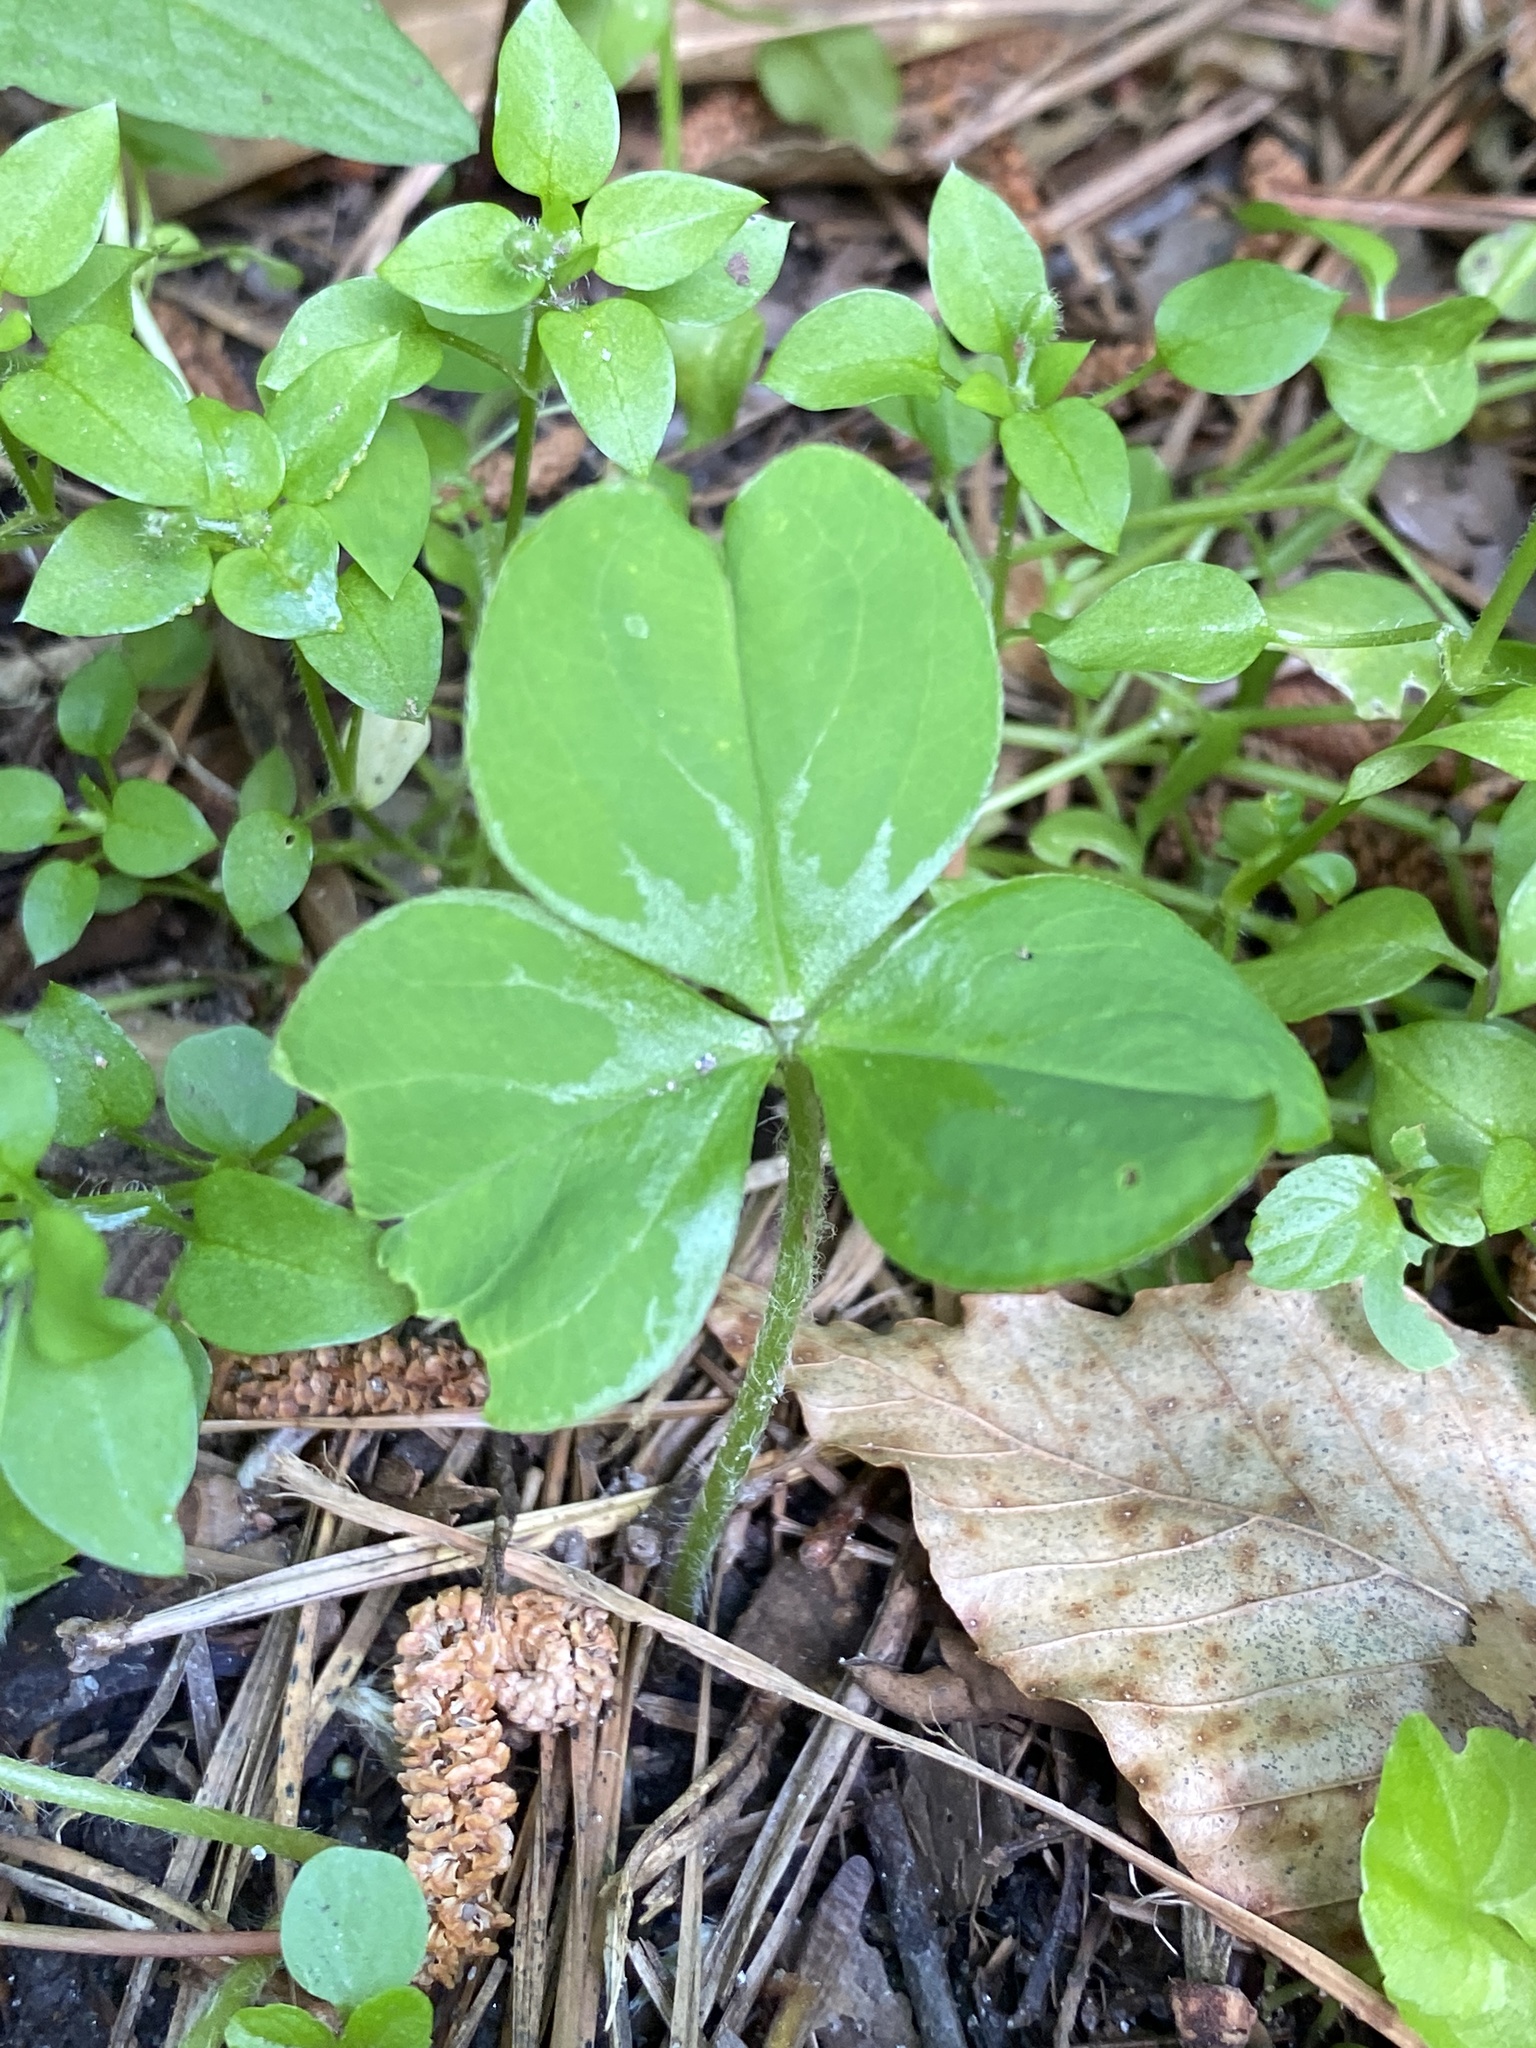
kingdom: Plantae
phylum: Tracheophyta
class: Magnoliopsida
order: Oxalidales
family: Oxalidaceae
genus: Oxalis
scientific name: Oxalis debilis
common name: Large-flowered pink-sorrel
